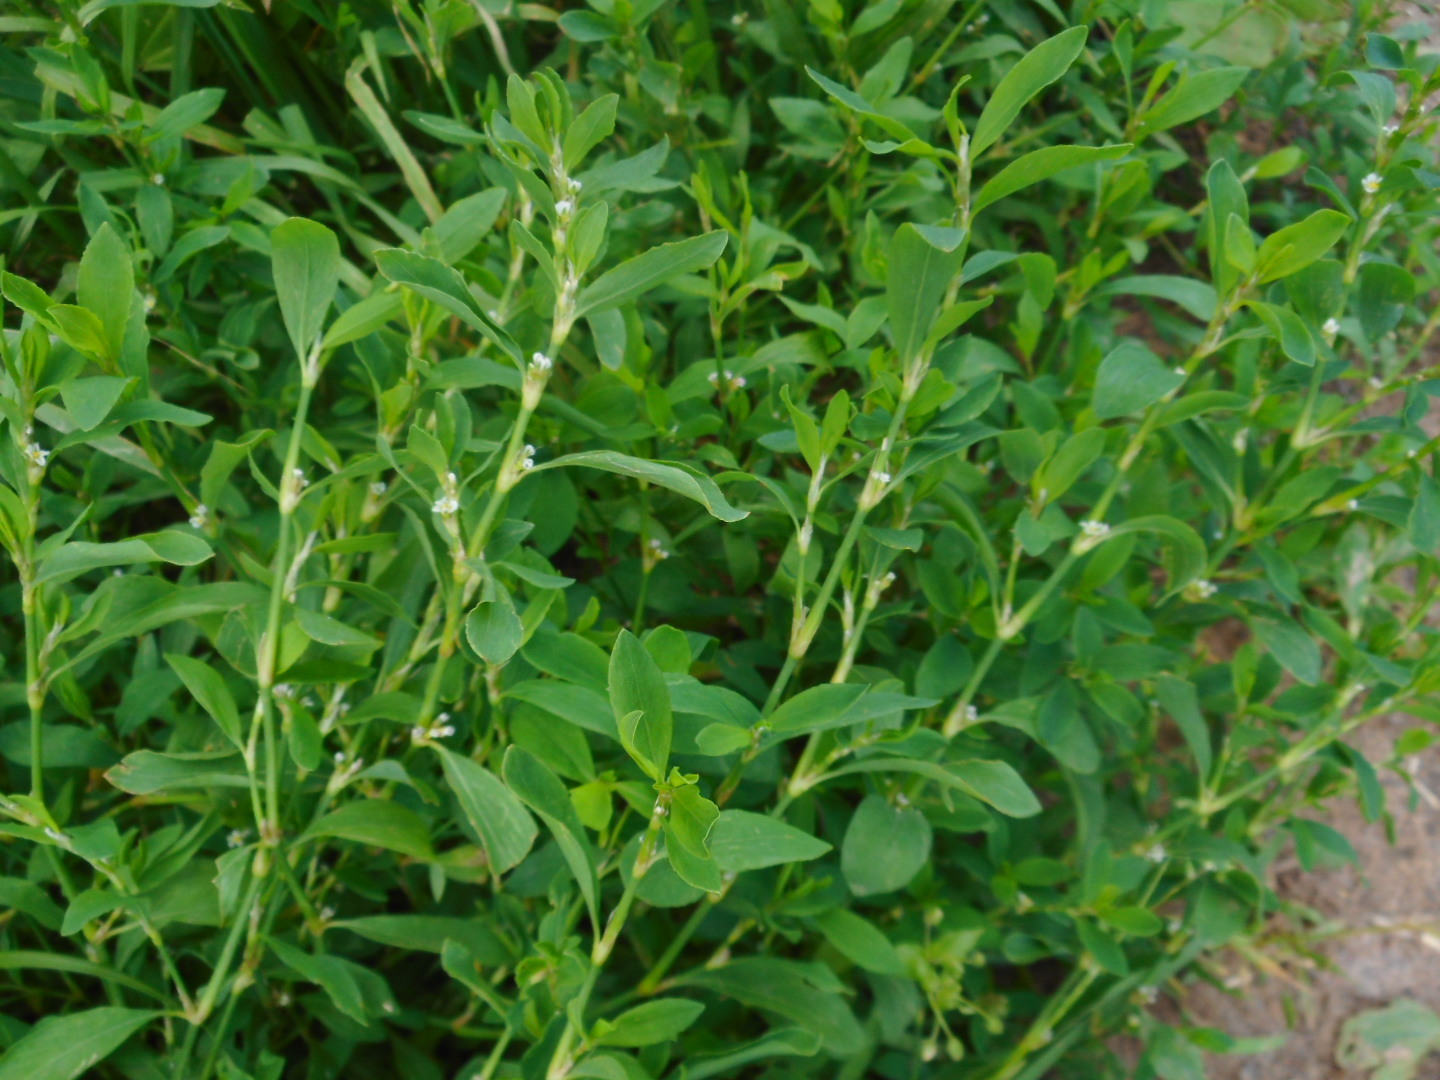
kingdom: Plantae
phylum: Tracheophyta
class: Magnoliopsida
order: Caryophyllales
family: Polygonaceae
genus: Polygonum
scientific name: Polygonum
